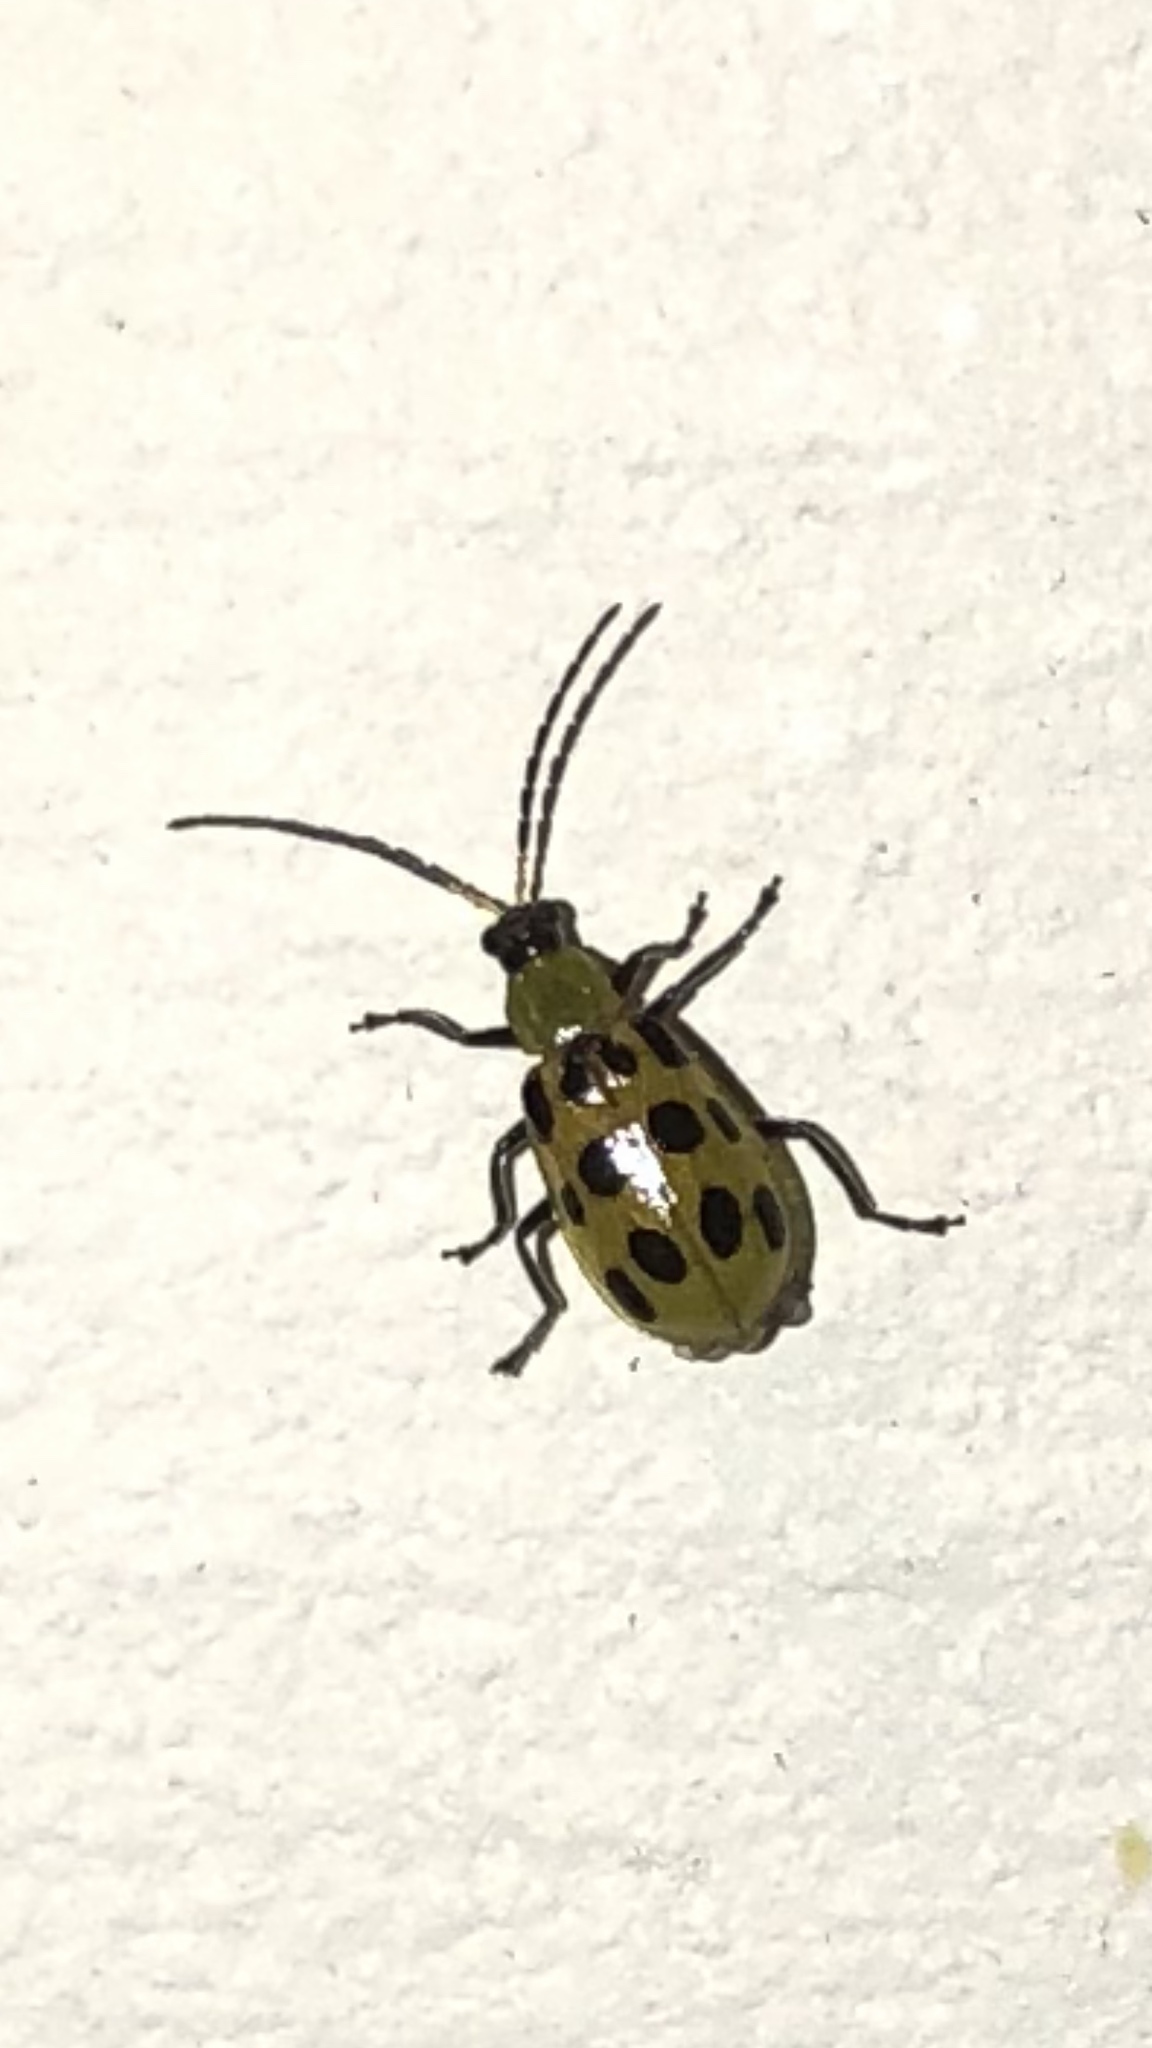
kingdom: Animalia
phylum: Arthropoda
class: Insecta
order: Coleoptera
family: Chrysomelidae
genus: Diabrotica
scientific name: Diabrotica undecimpunctata
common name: Spotted cucumber beetle
